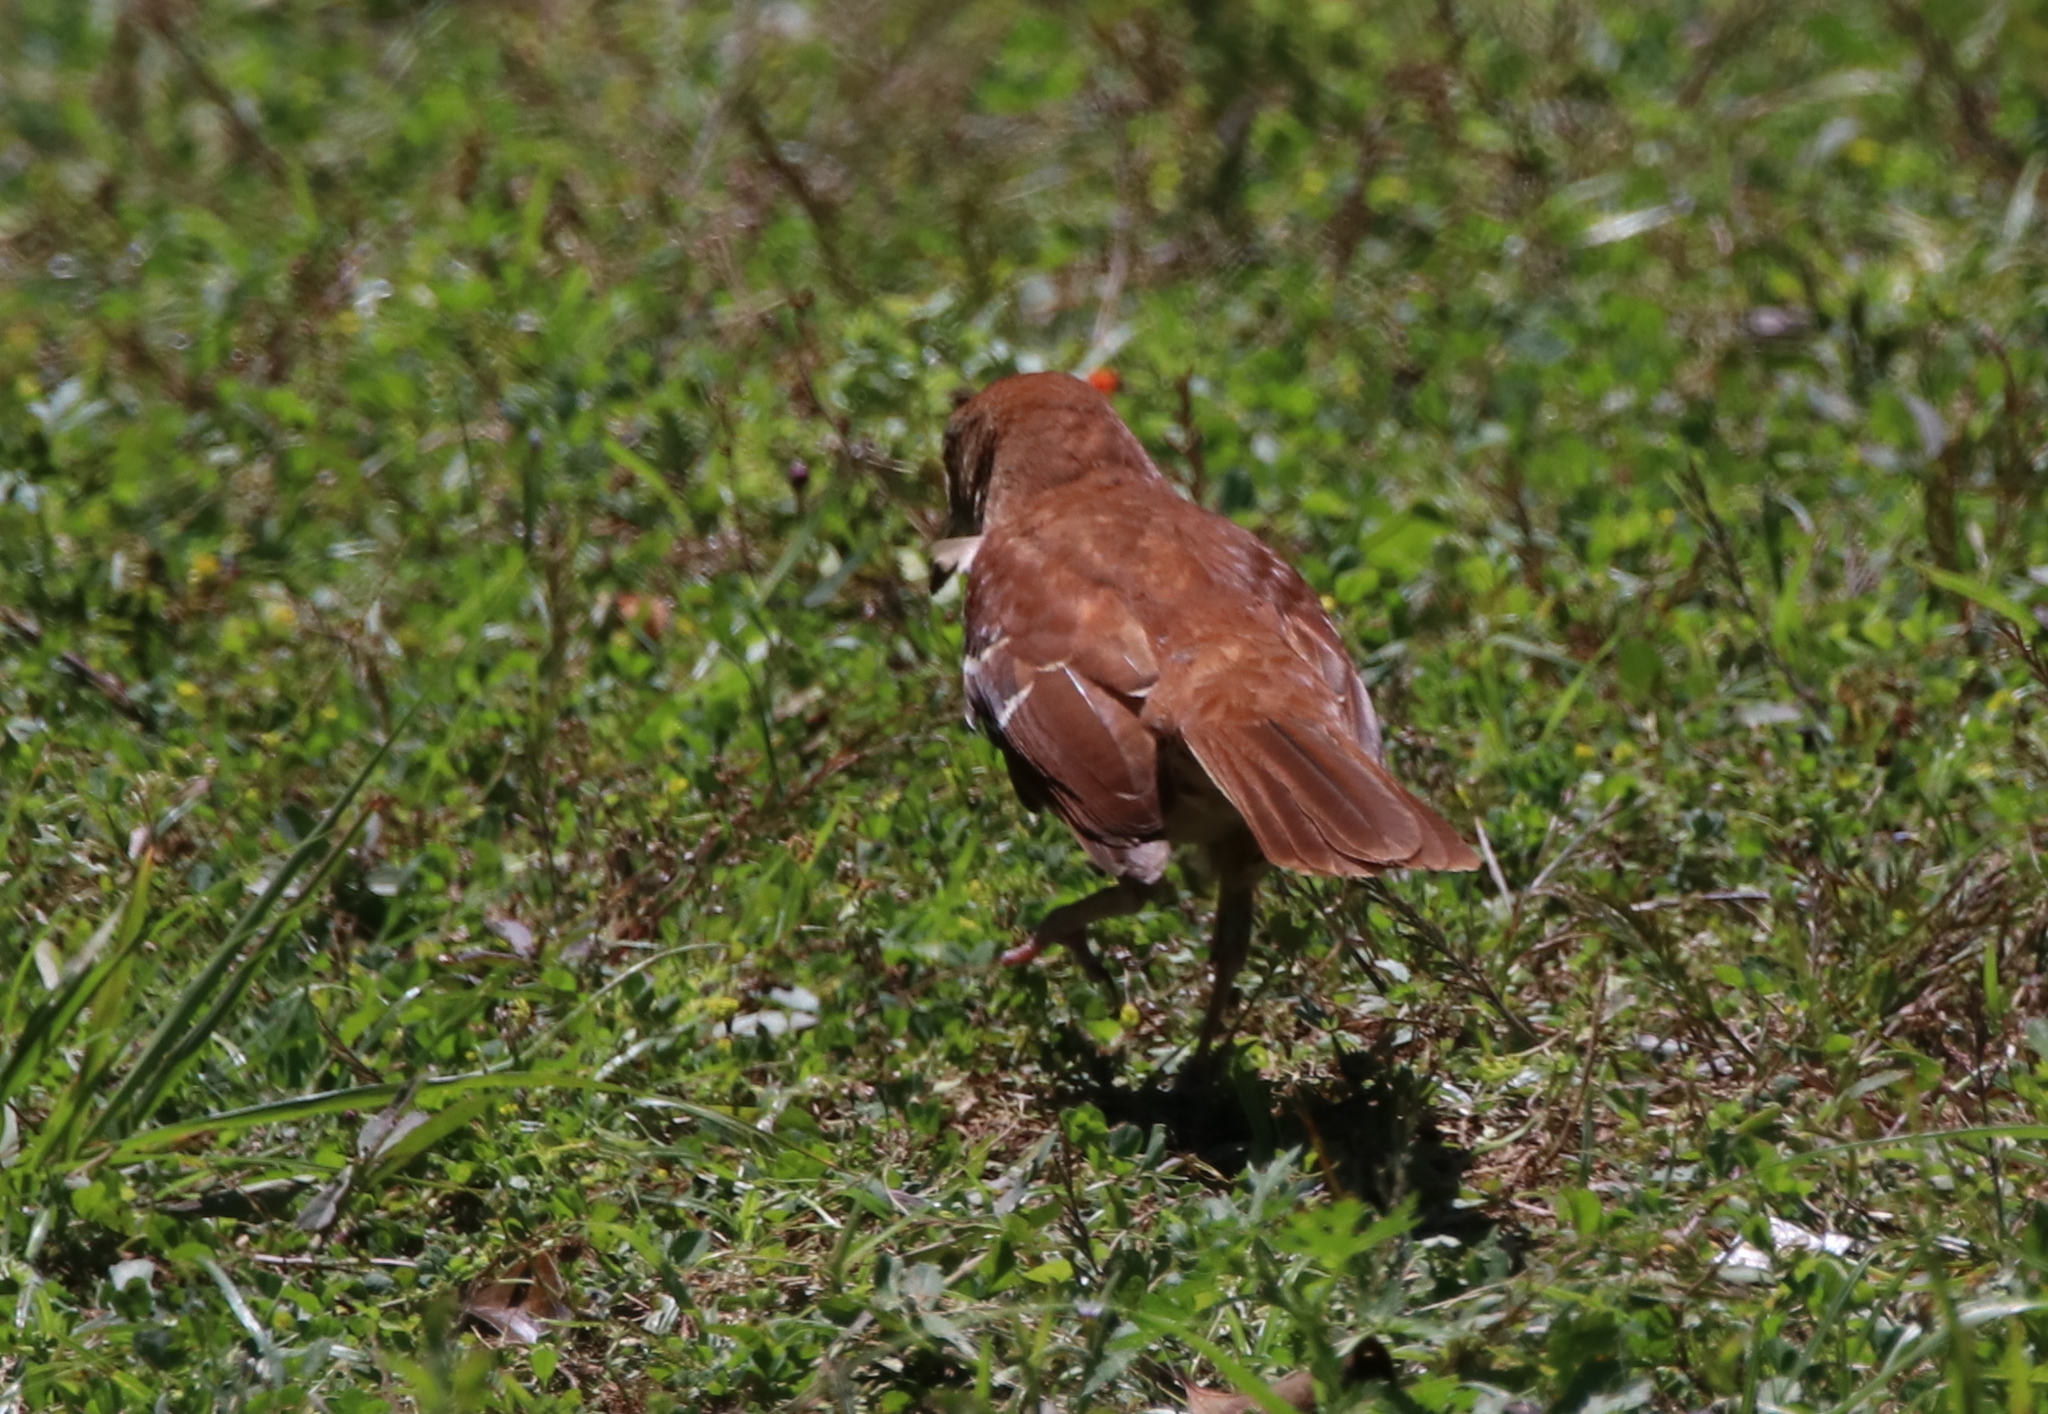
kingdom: Animalia
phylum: Chordata
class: Aves
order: Passeriformes
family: Mimidae
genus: Toxostoma
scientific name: Toxostoma rufum
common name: Brown thrasher
